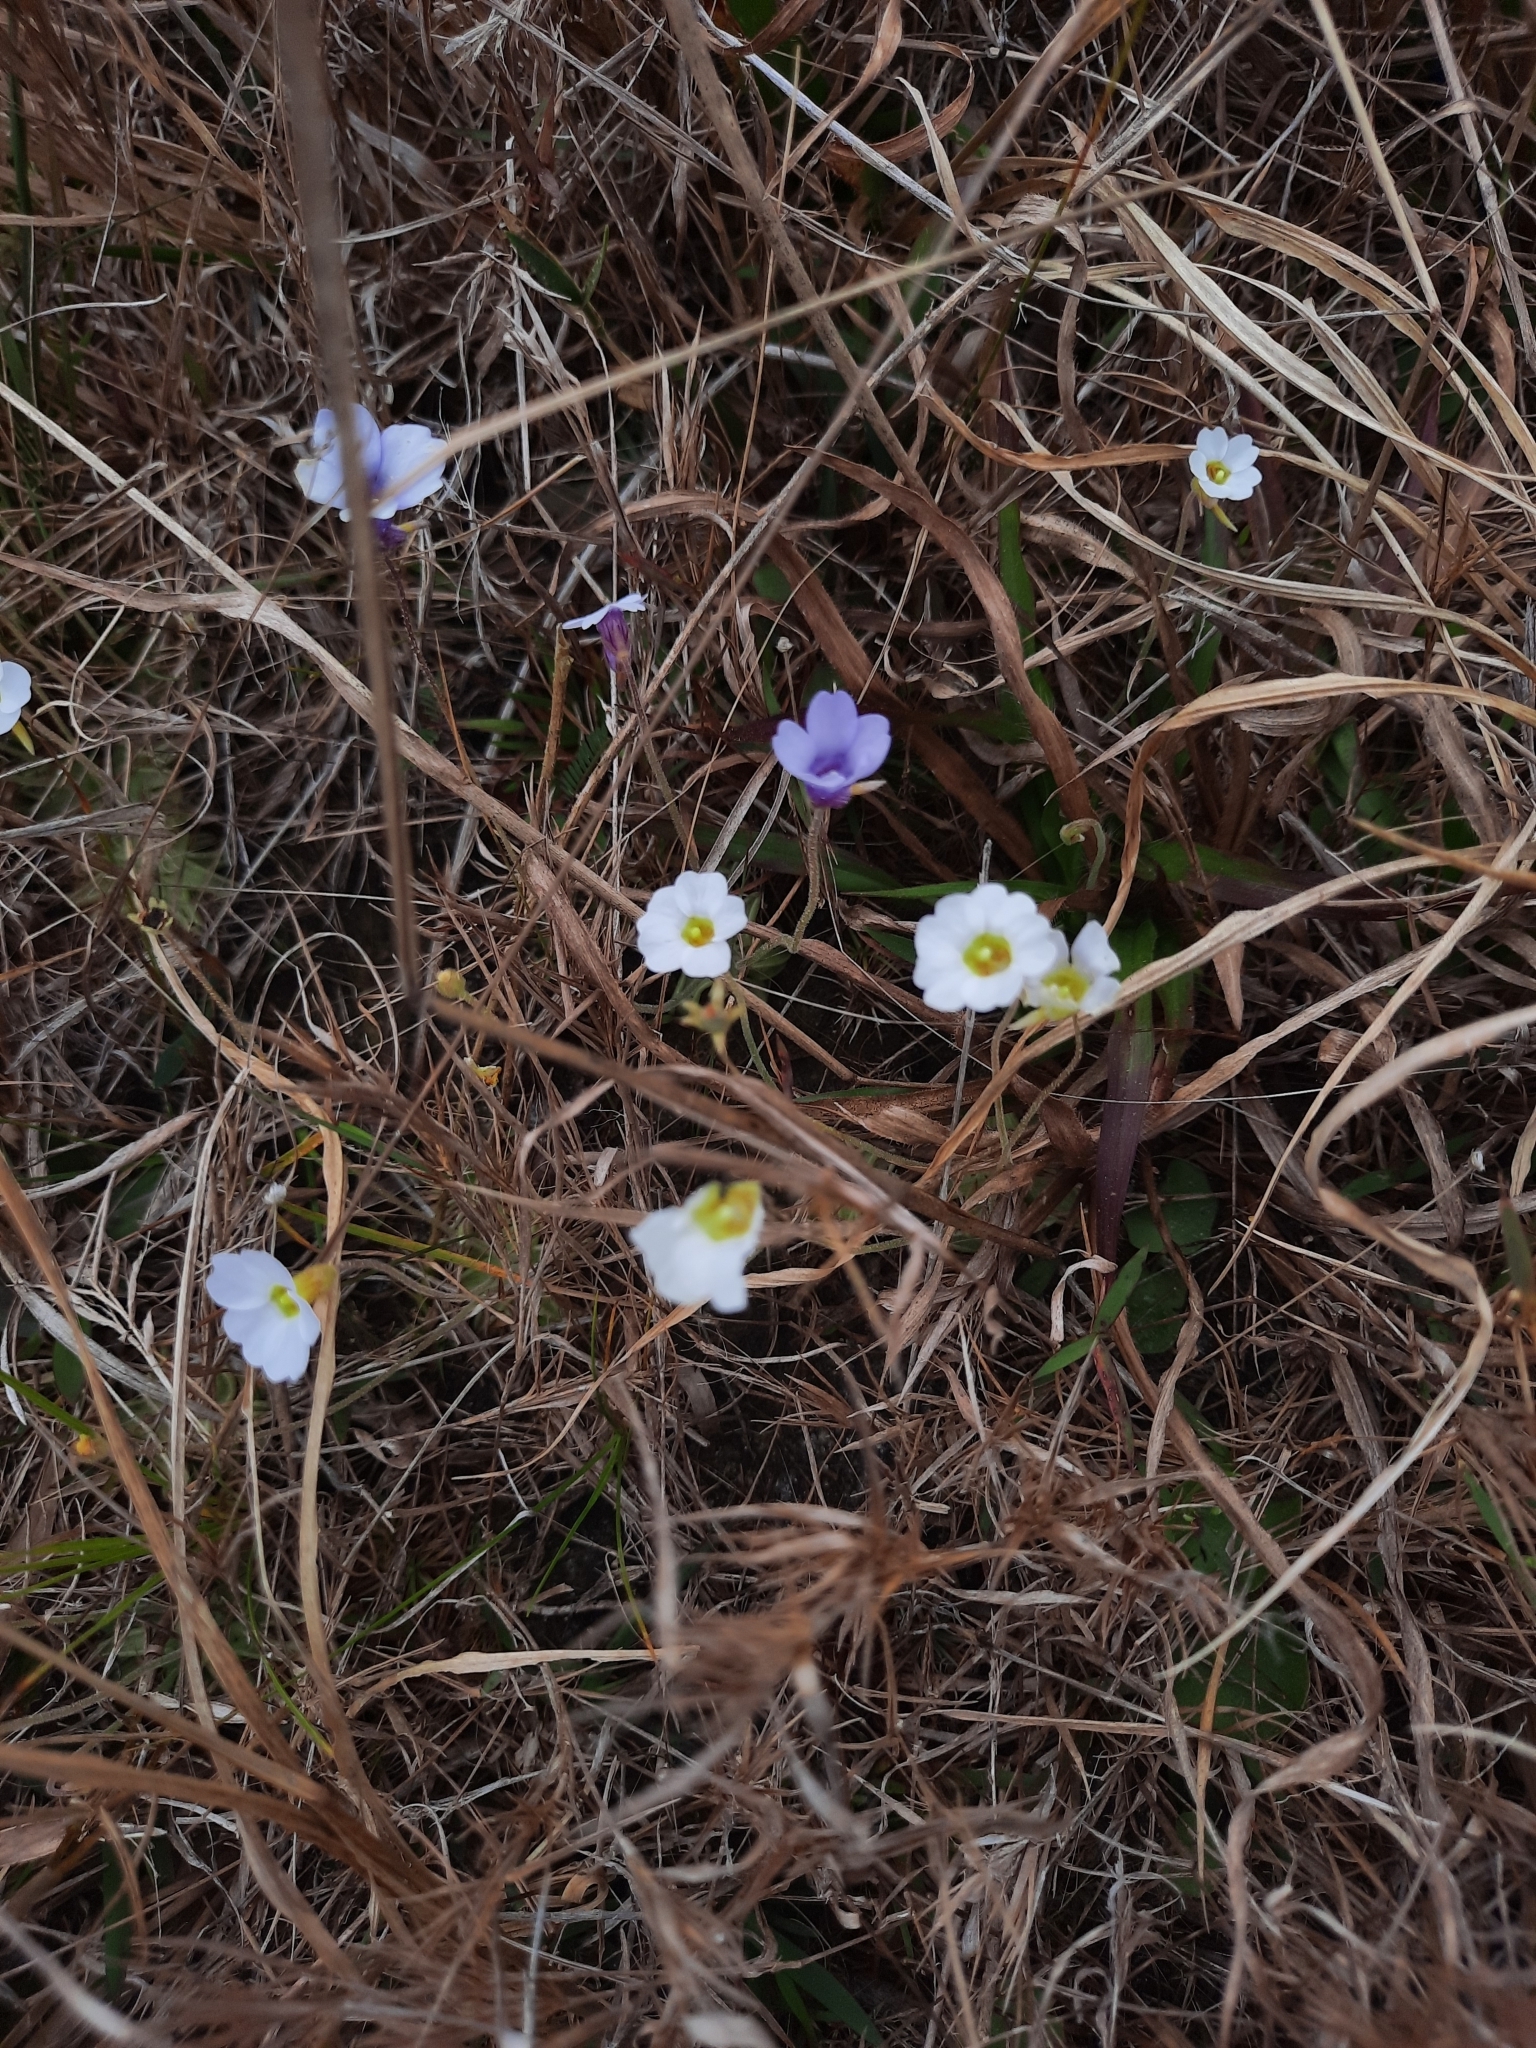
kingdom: Plantae
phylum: Tracheophyta
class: Magnoliopsida
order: Lamiales
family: Lentibulariaceae
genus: Pinguicula
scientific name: Pinguicula pumila
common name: Small butterwort
